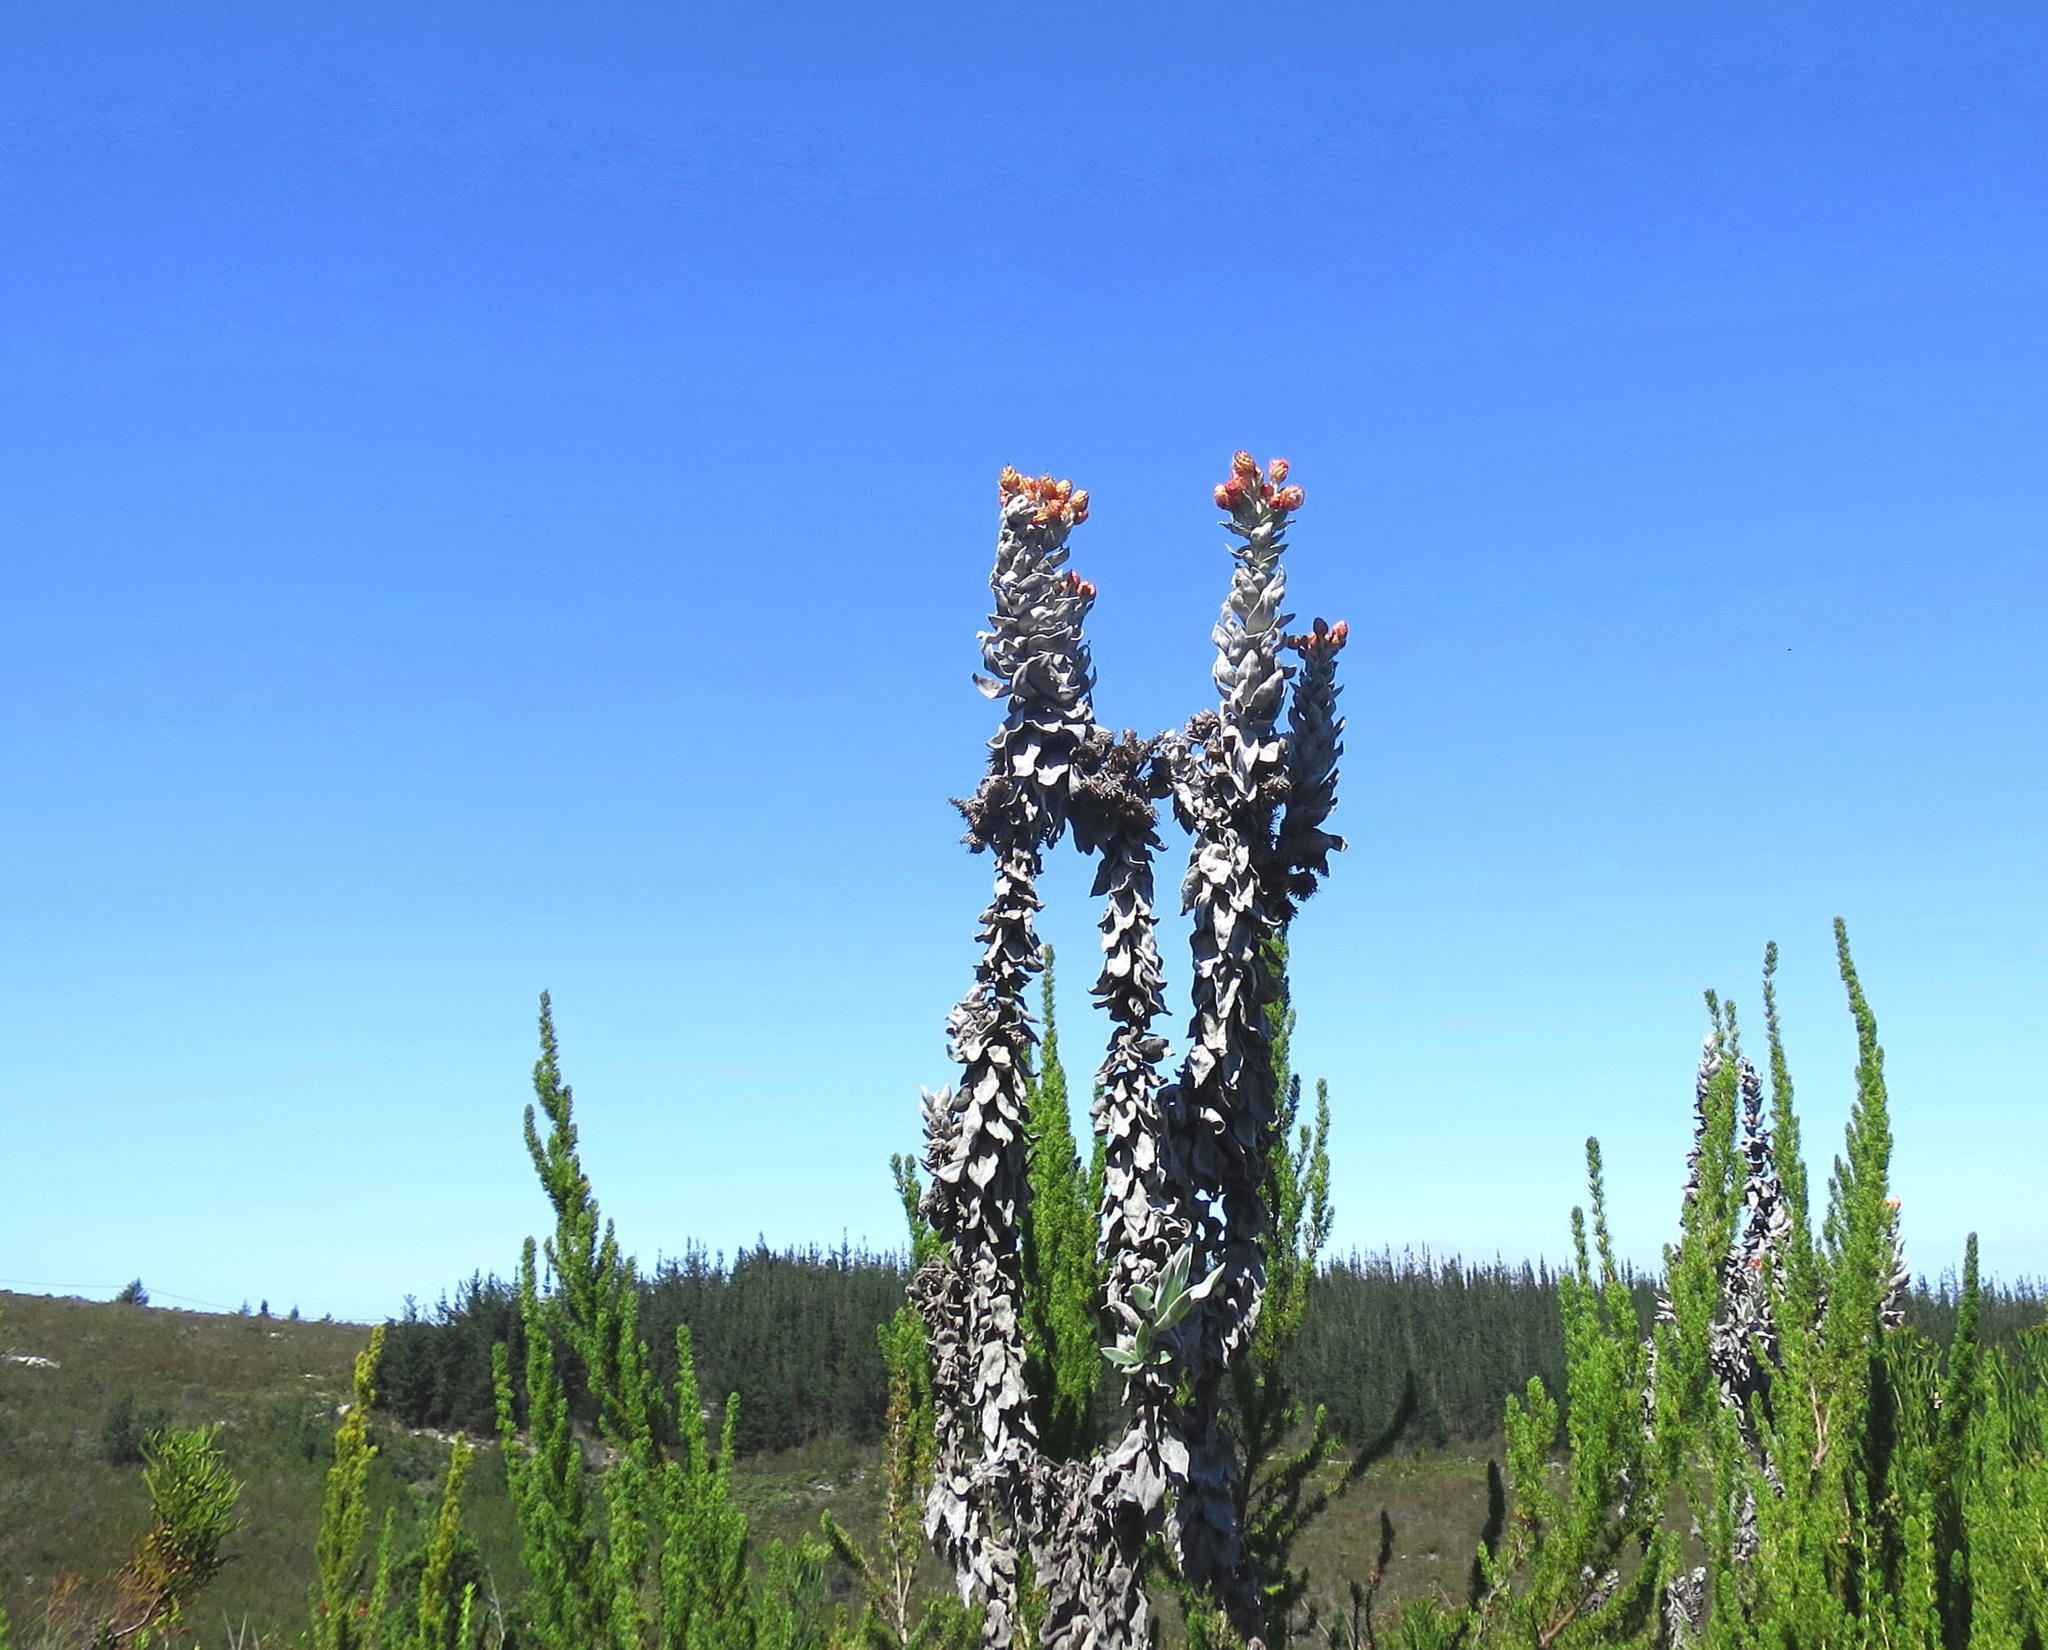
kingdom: Plantae
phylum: Tracheophyta
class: Magnoliopsida
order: Asterales
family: Asteraceae
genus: Syncarpha
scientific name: Syncarpha eximia
